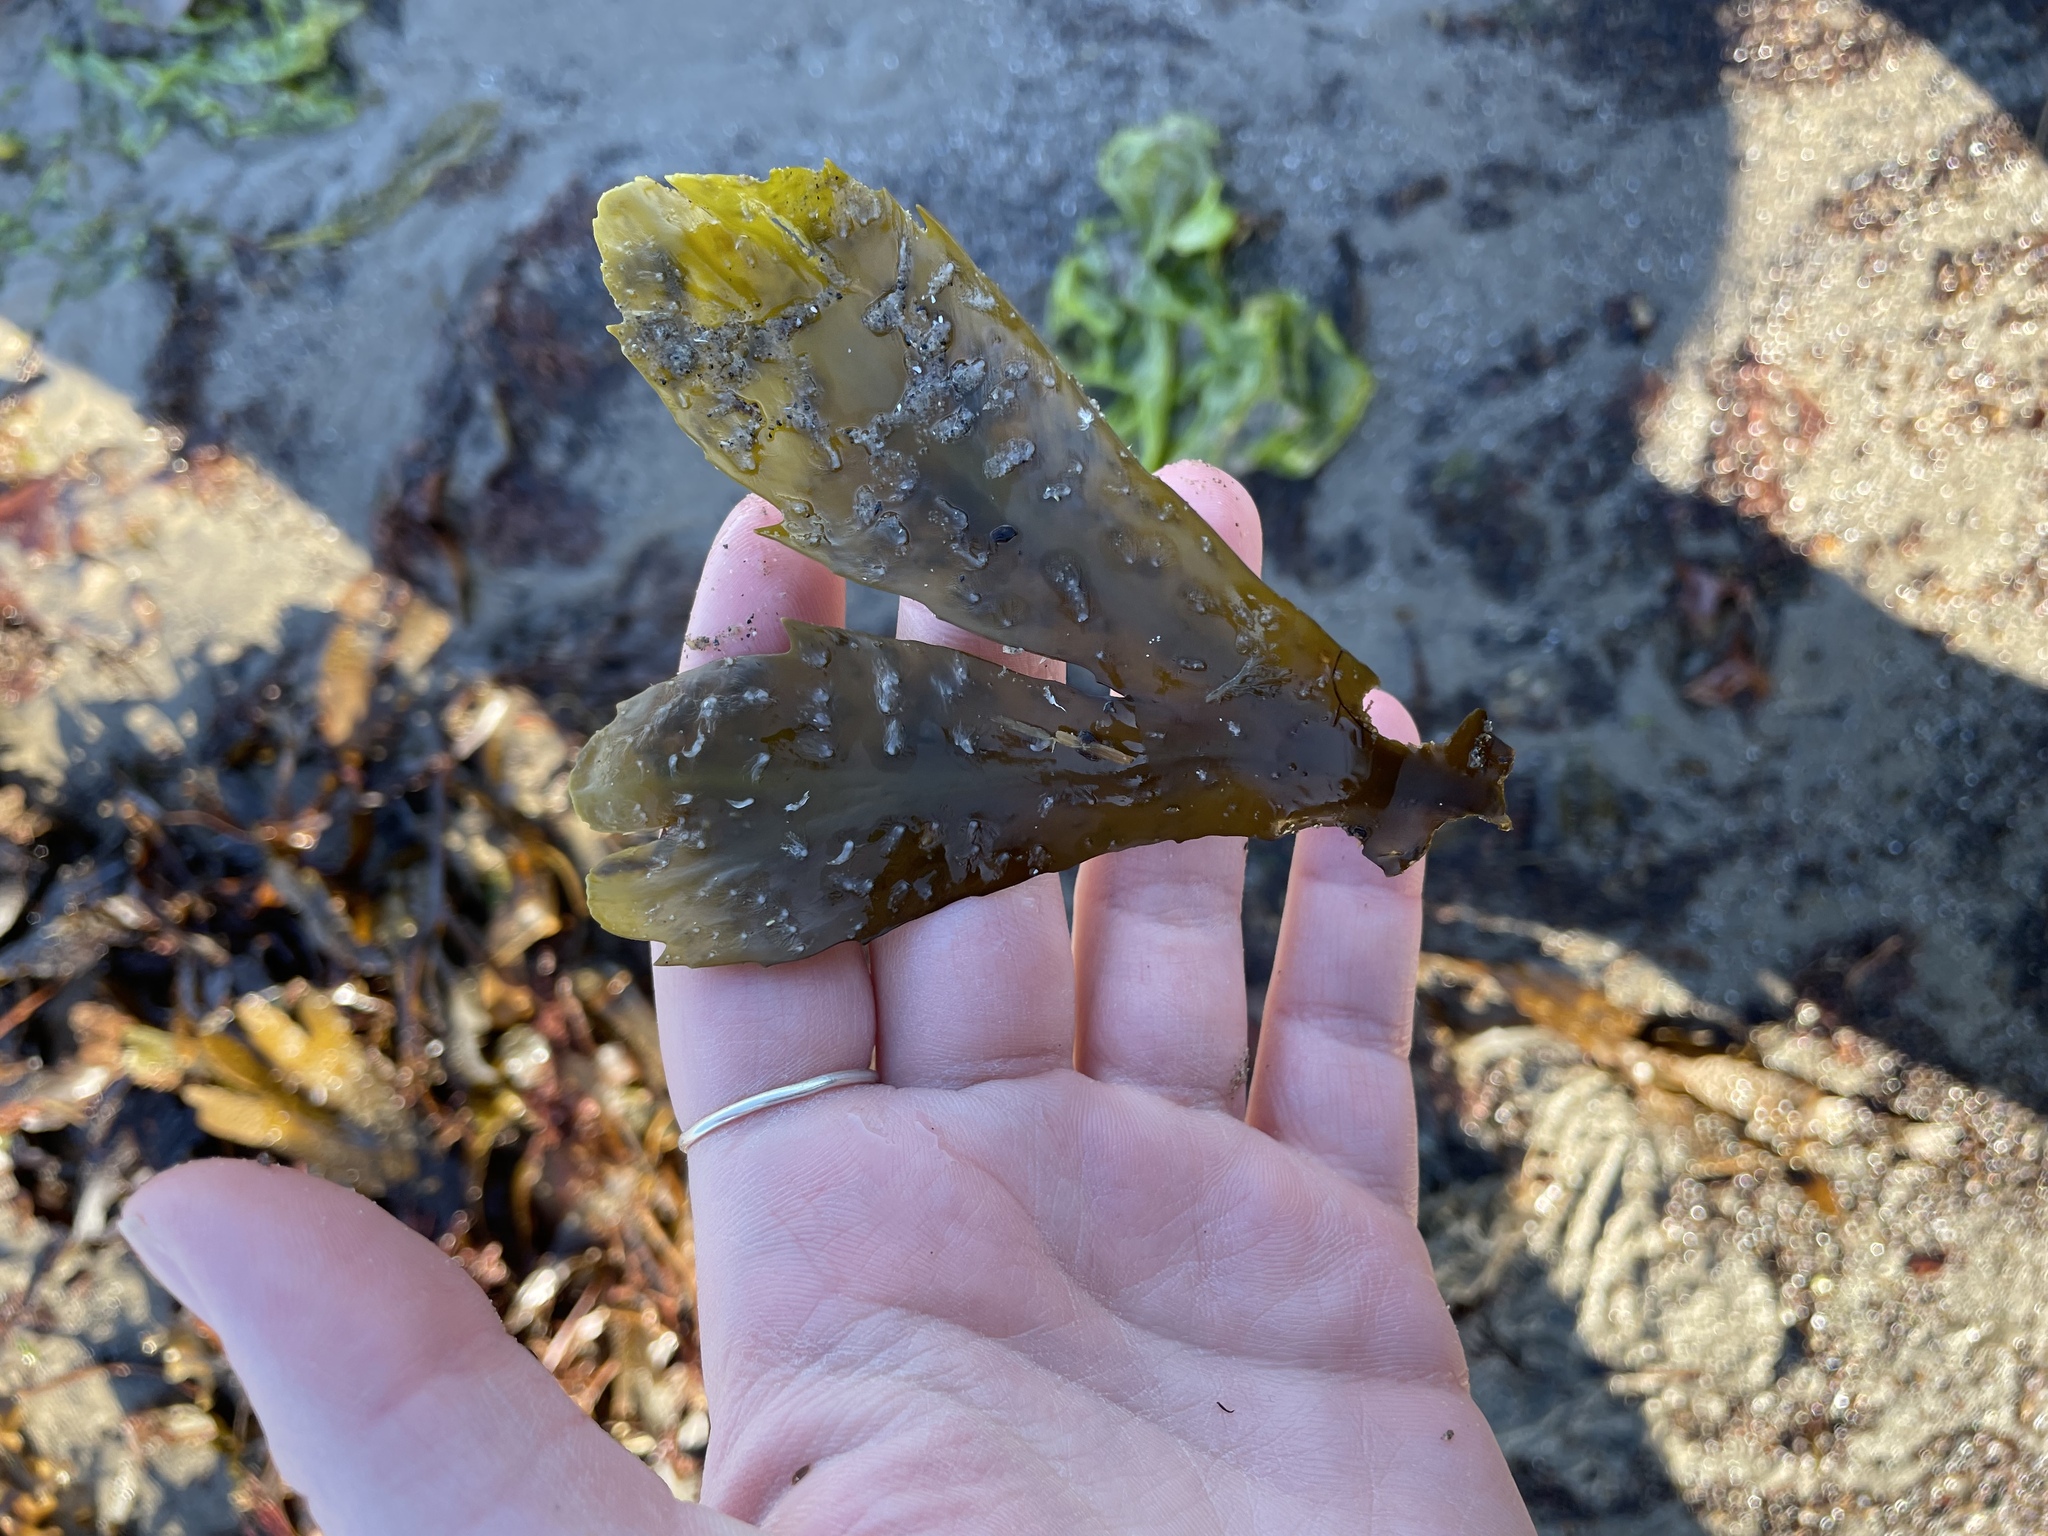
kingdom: Chromista
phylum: Ochrophyta
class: Phaeophyceae
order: Fucales
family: Fucaceae
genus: Fucus
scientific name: Fucus serratus
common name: Toothed wrack
